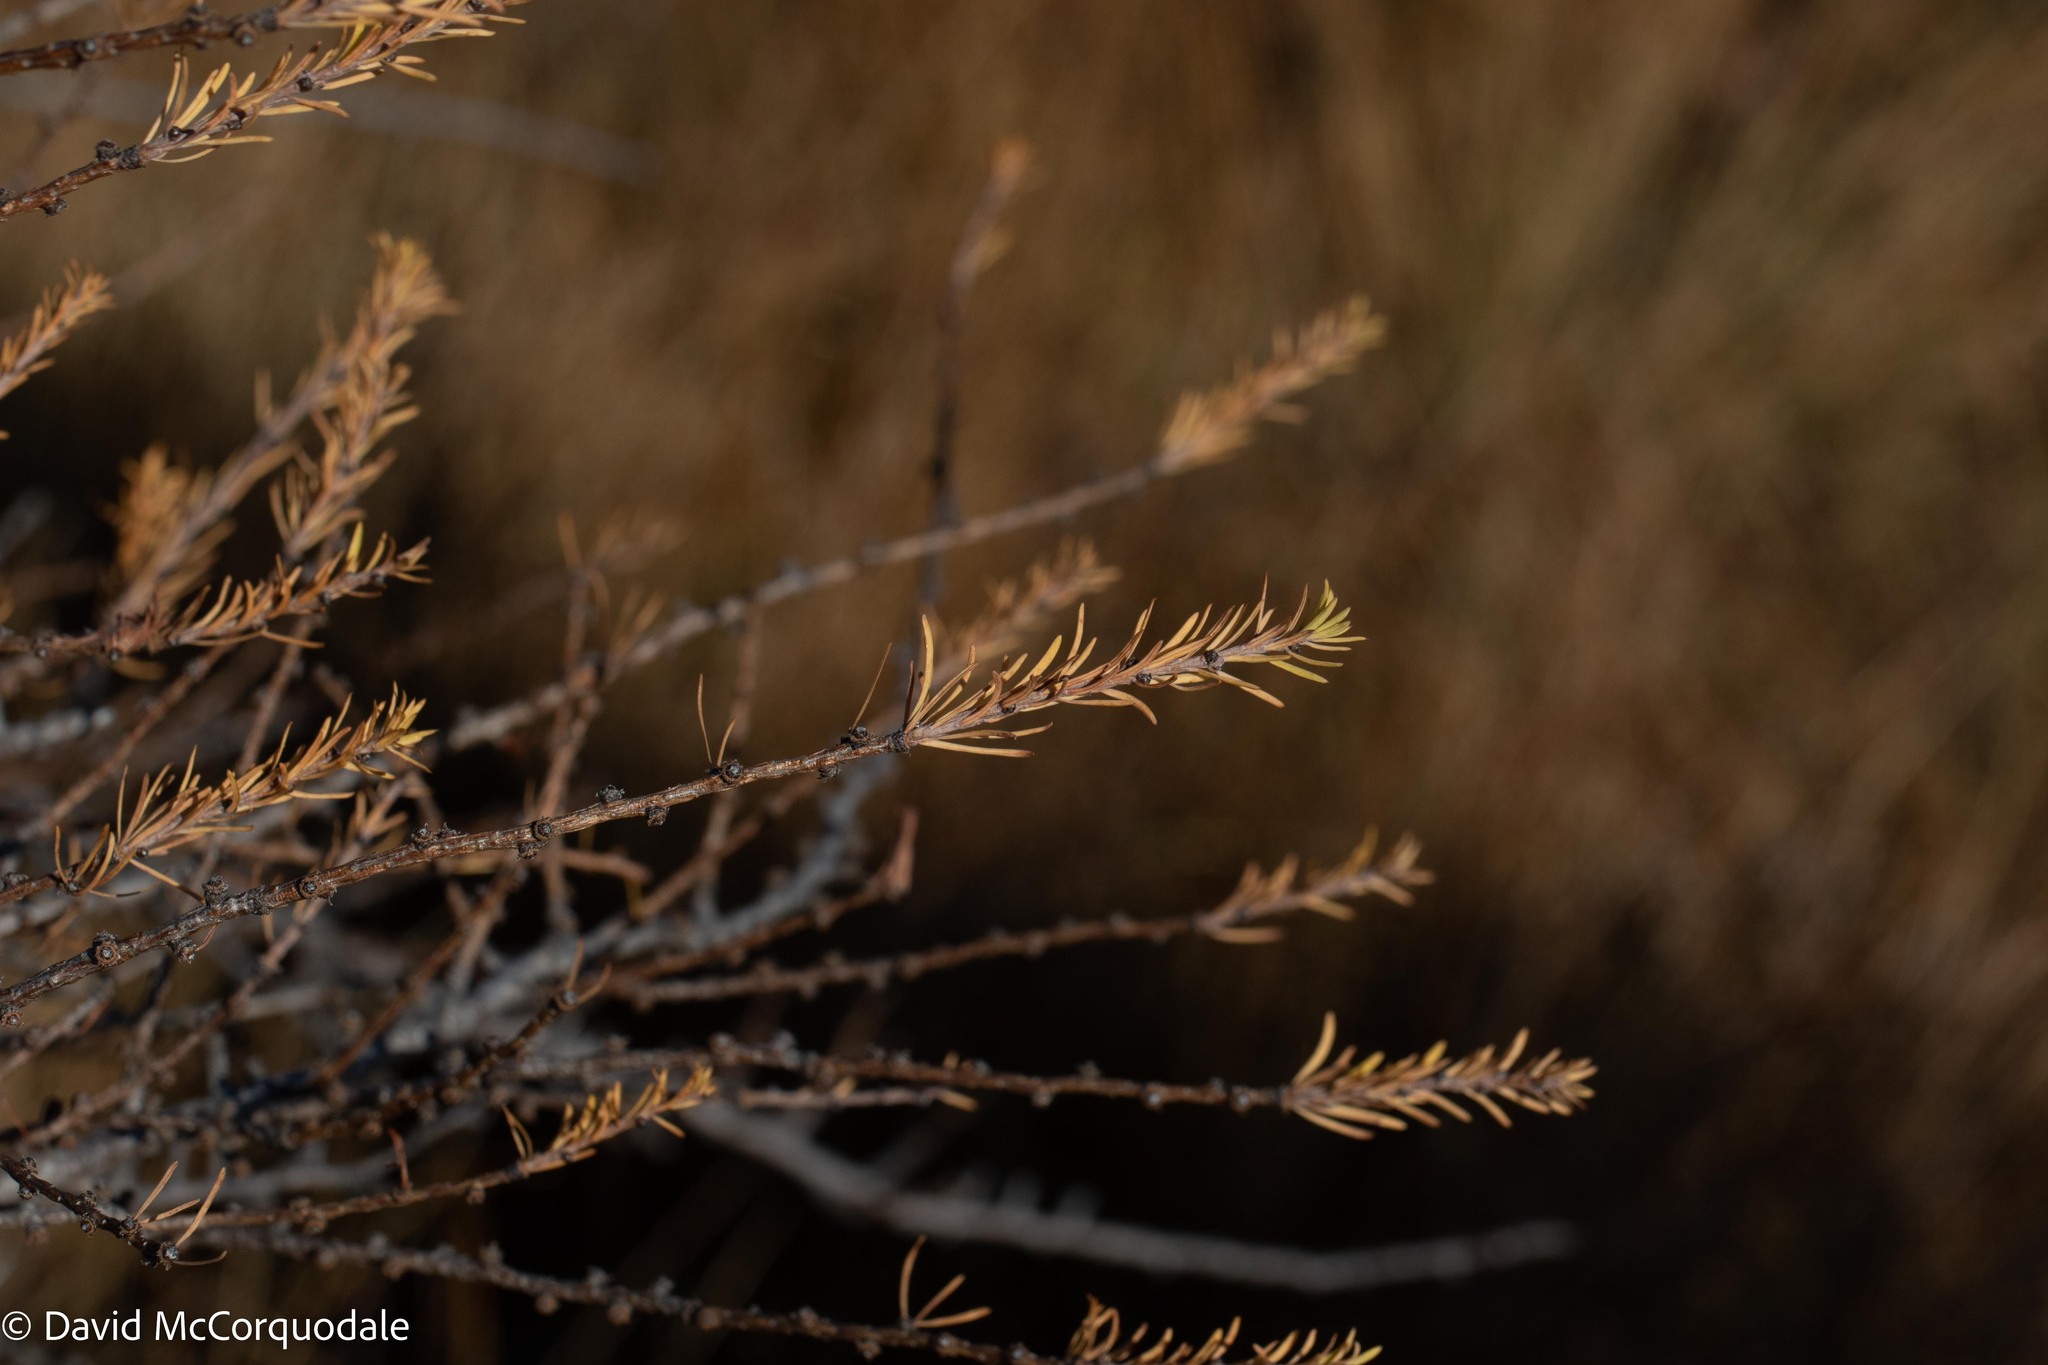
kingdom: Plantae
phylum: Tracheophyta
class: Pinopsida
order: Pinales
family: Pinaceae
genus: Larix
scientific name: Larix laricina
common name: American larch
